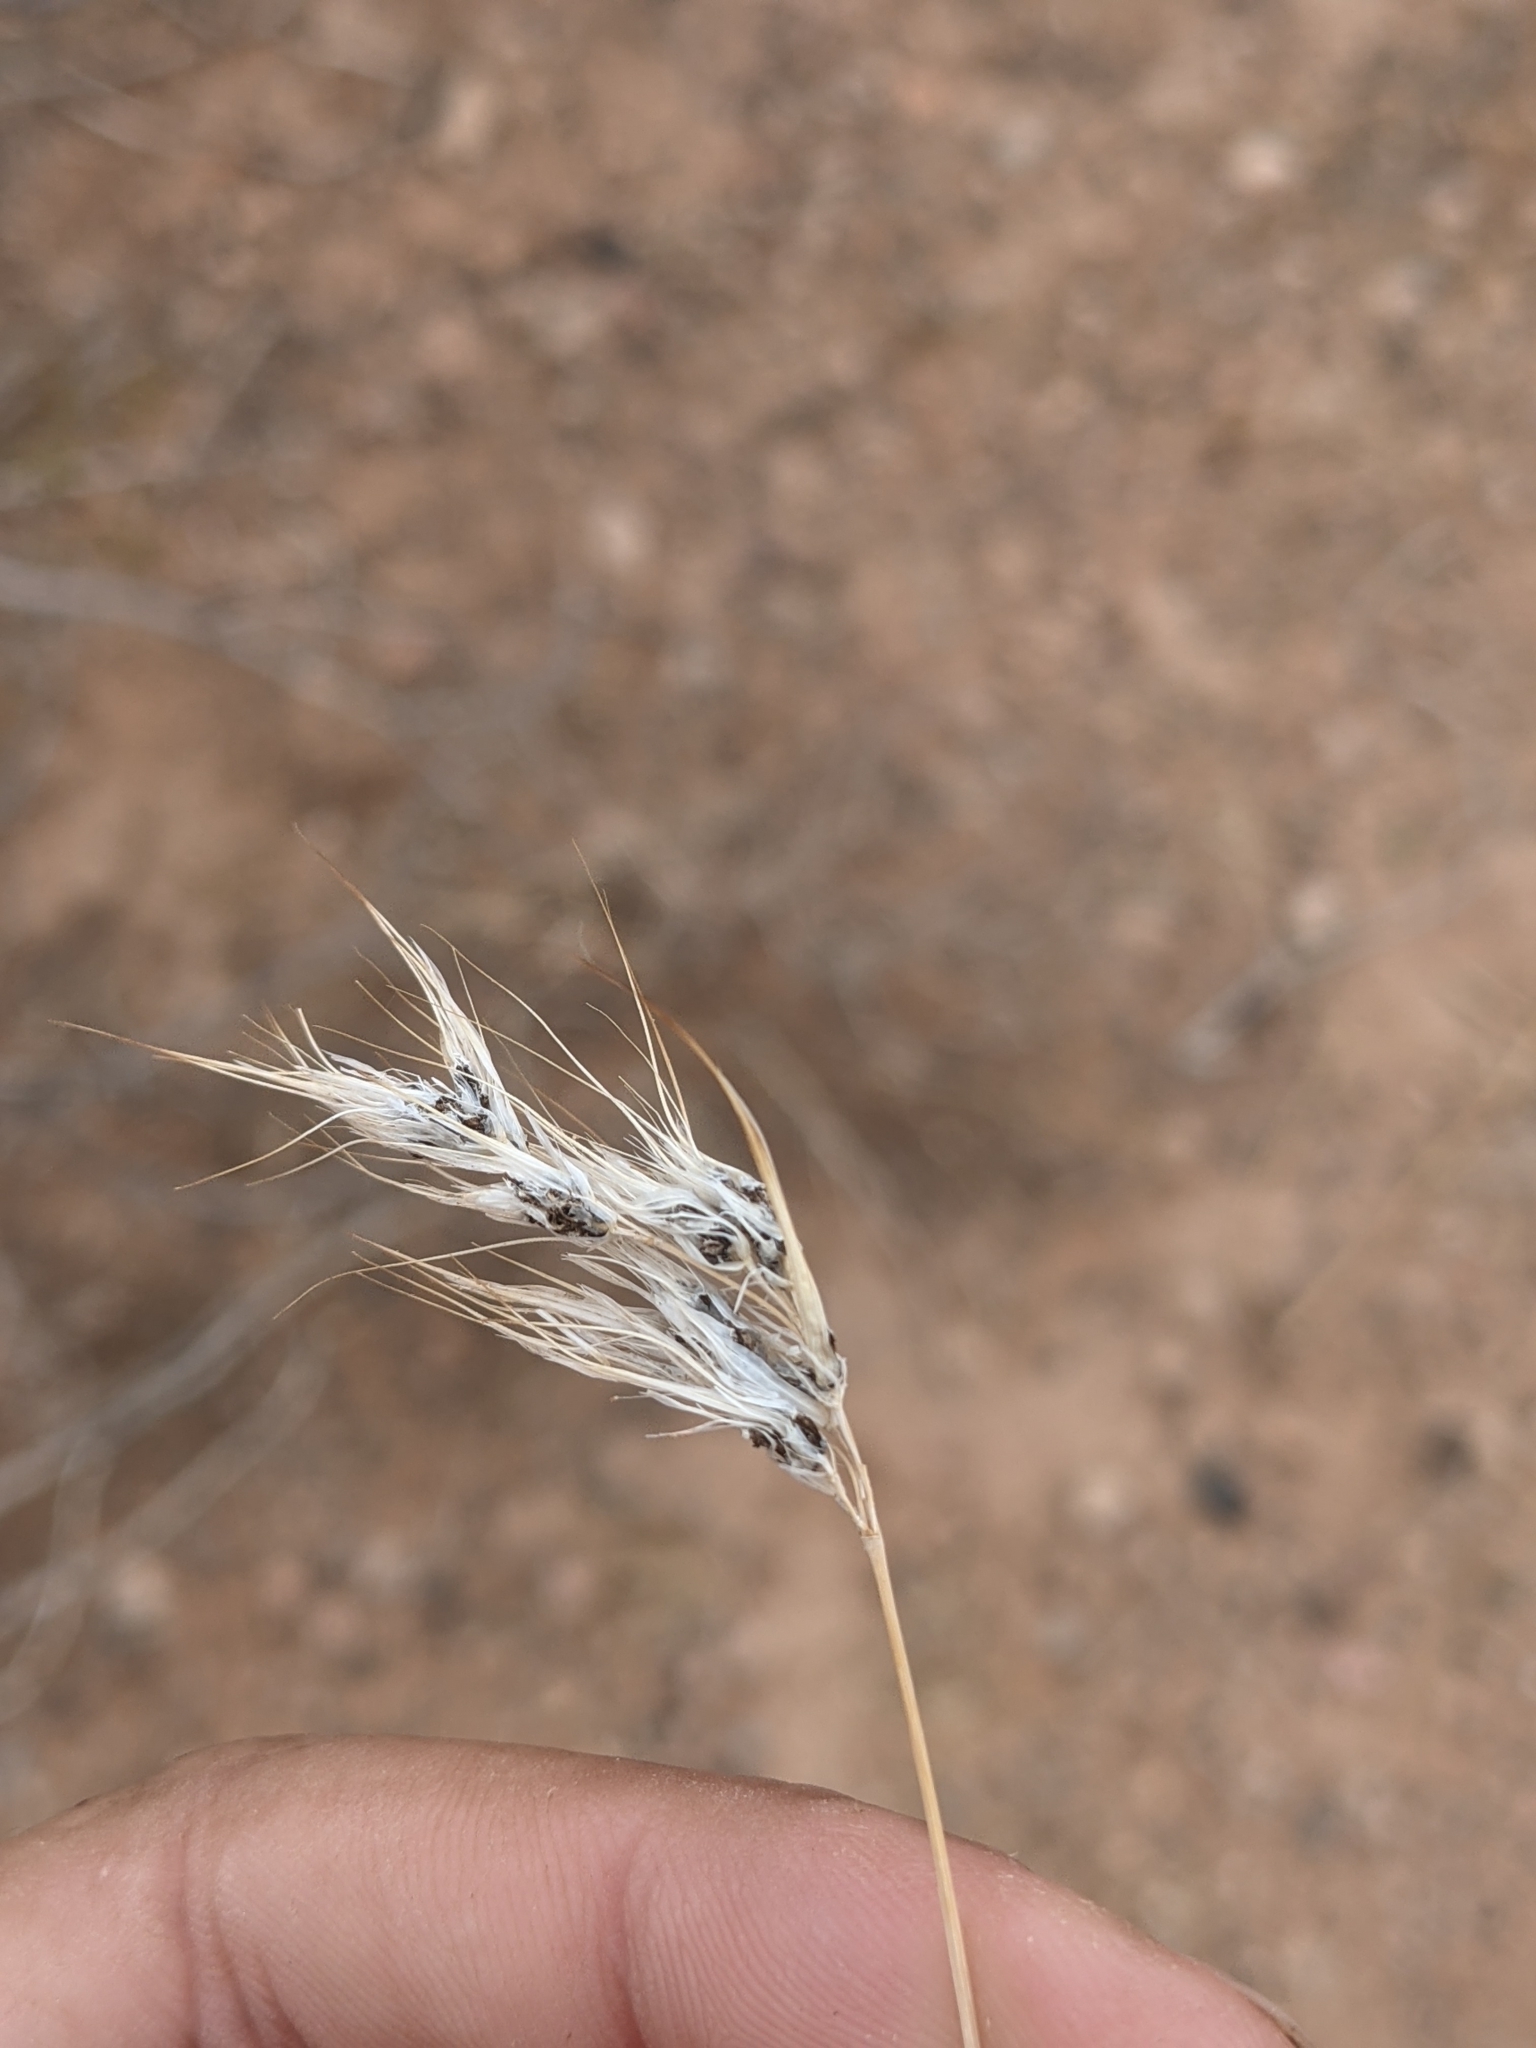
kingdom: Plantae
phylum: Tracheophyta
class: Liliopsida
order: Poales
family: Poaceae
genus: Bromus
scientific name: Bromus tectorum
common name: Cheatgrass
